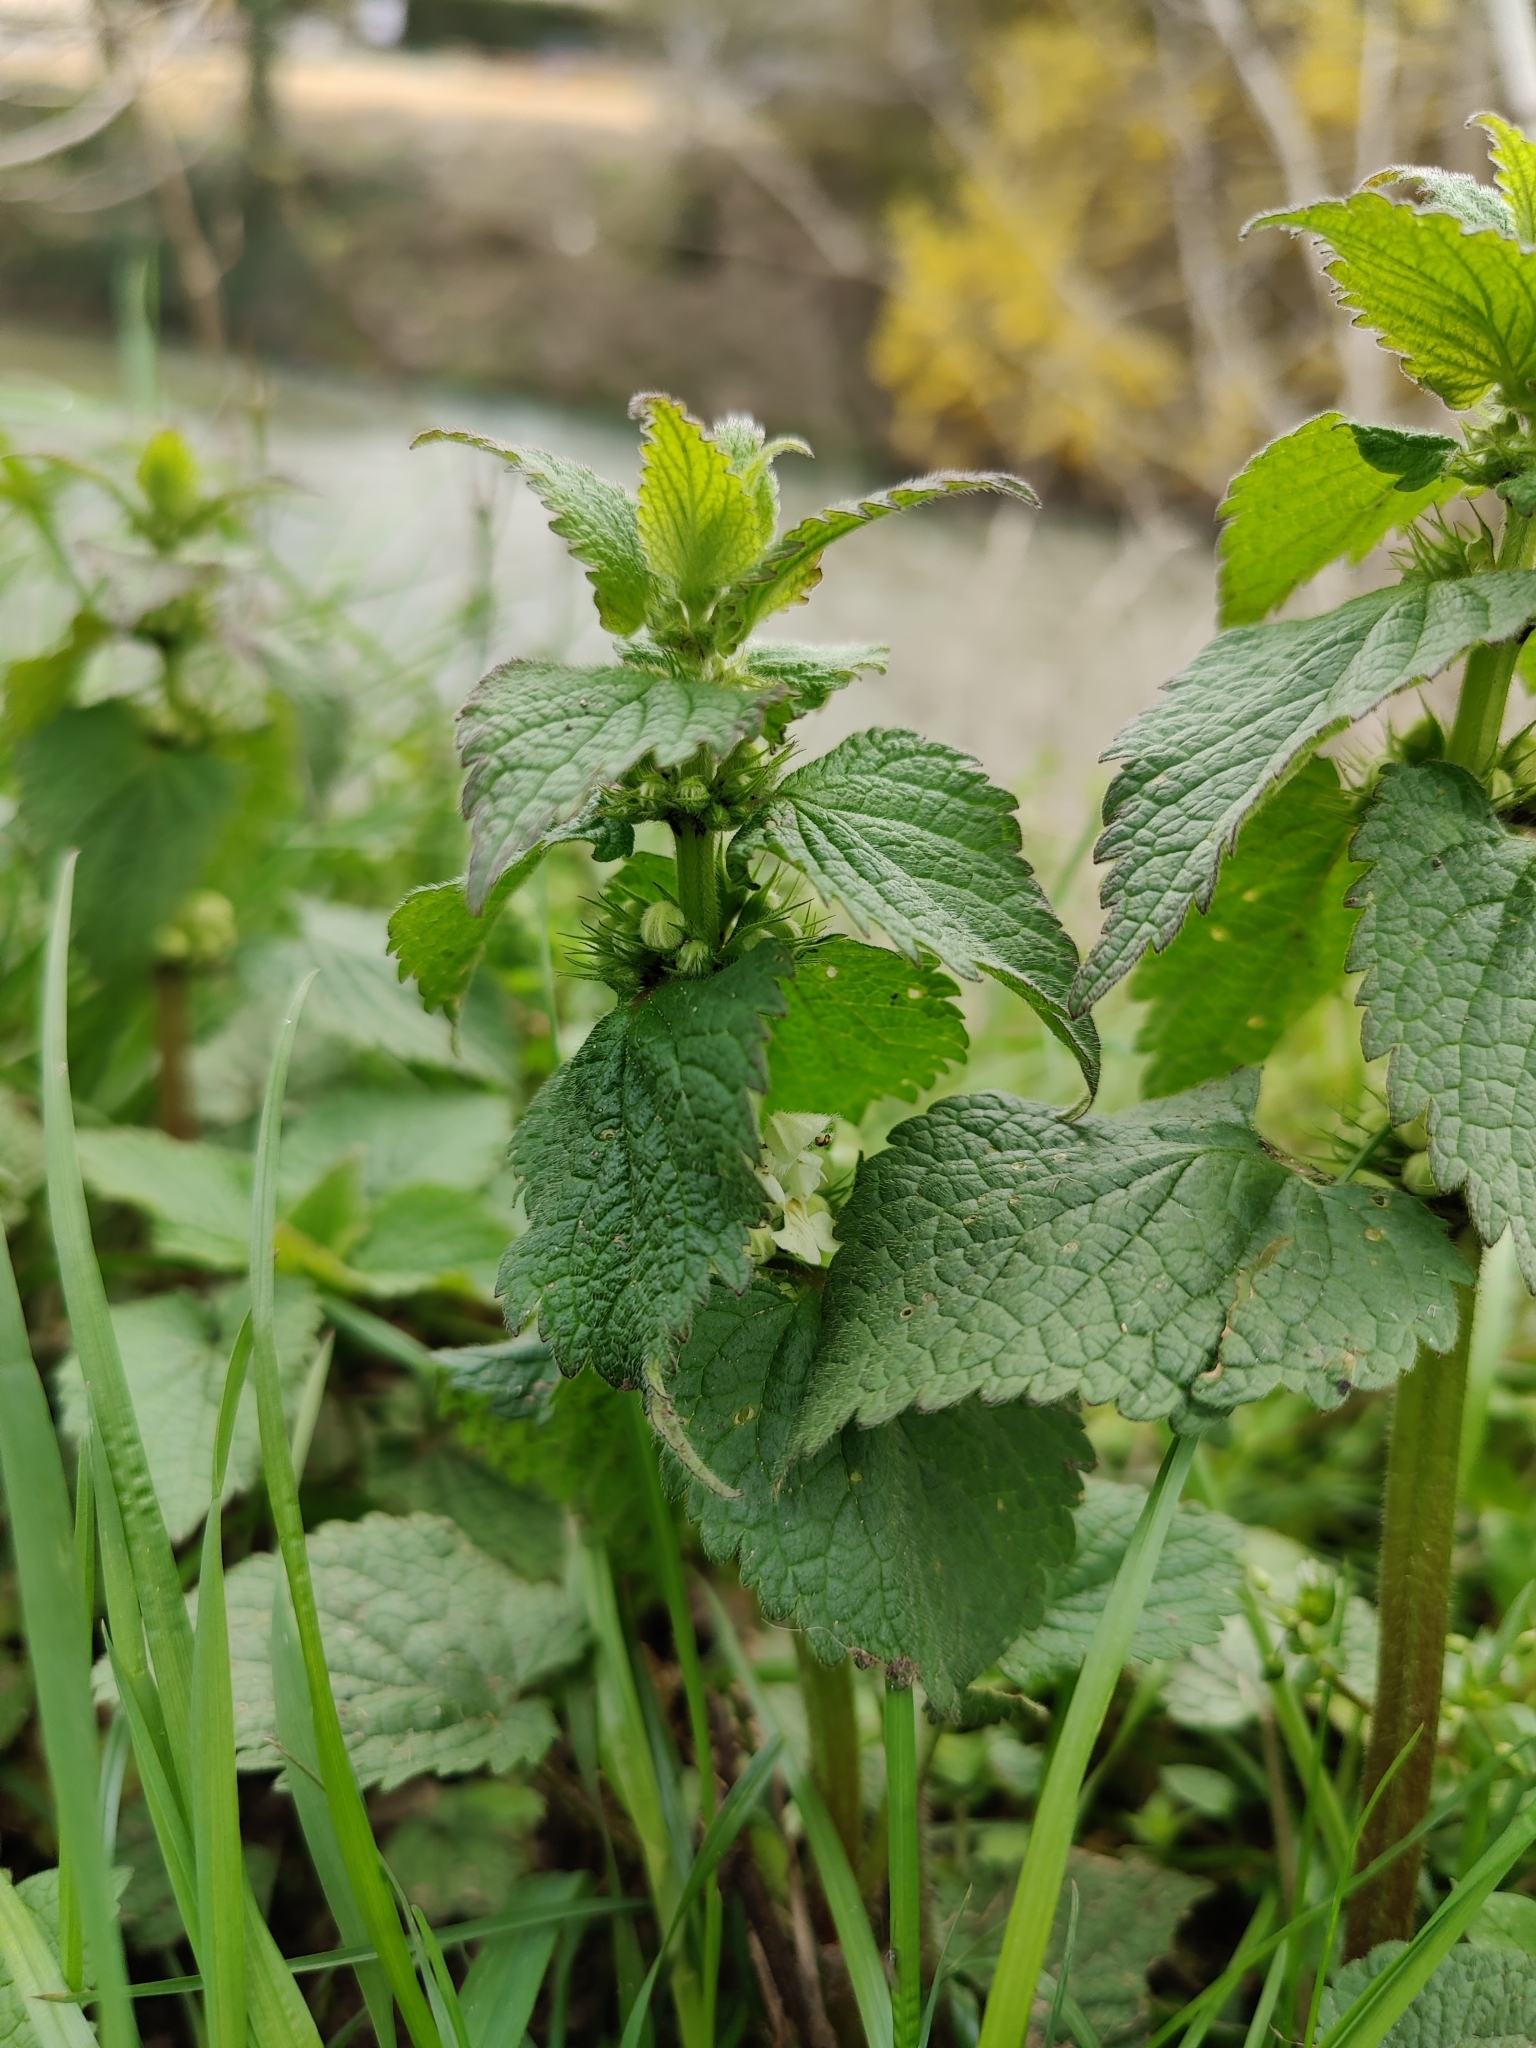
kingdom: Plantae
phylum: Tracheophyta
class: Magnoliopsida
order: Lamiales
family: Lamiaceae
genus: Lamium
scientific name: Lamium album
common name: White dead-nettle
